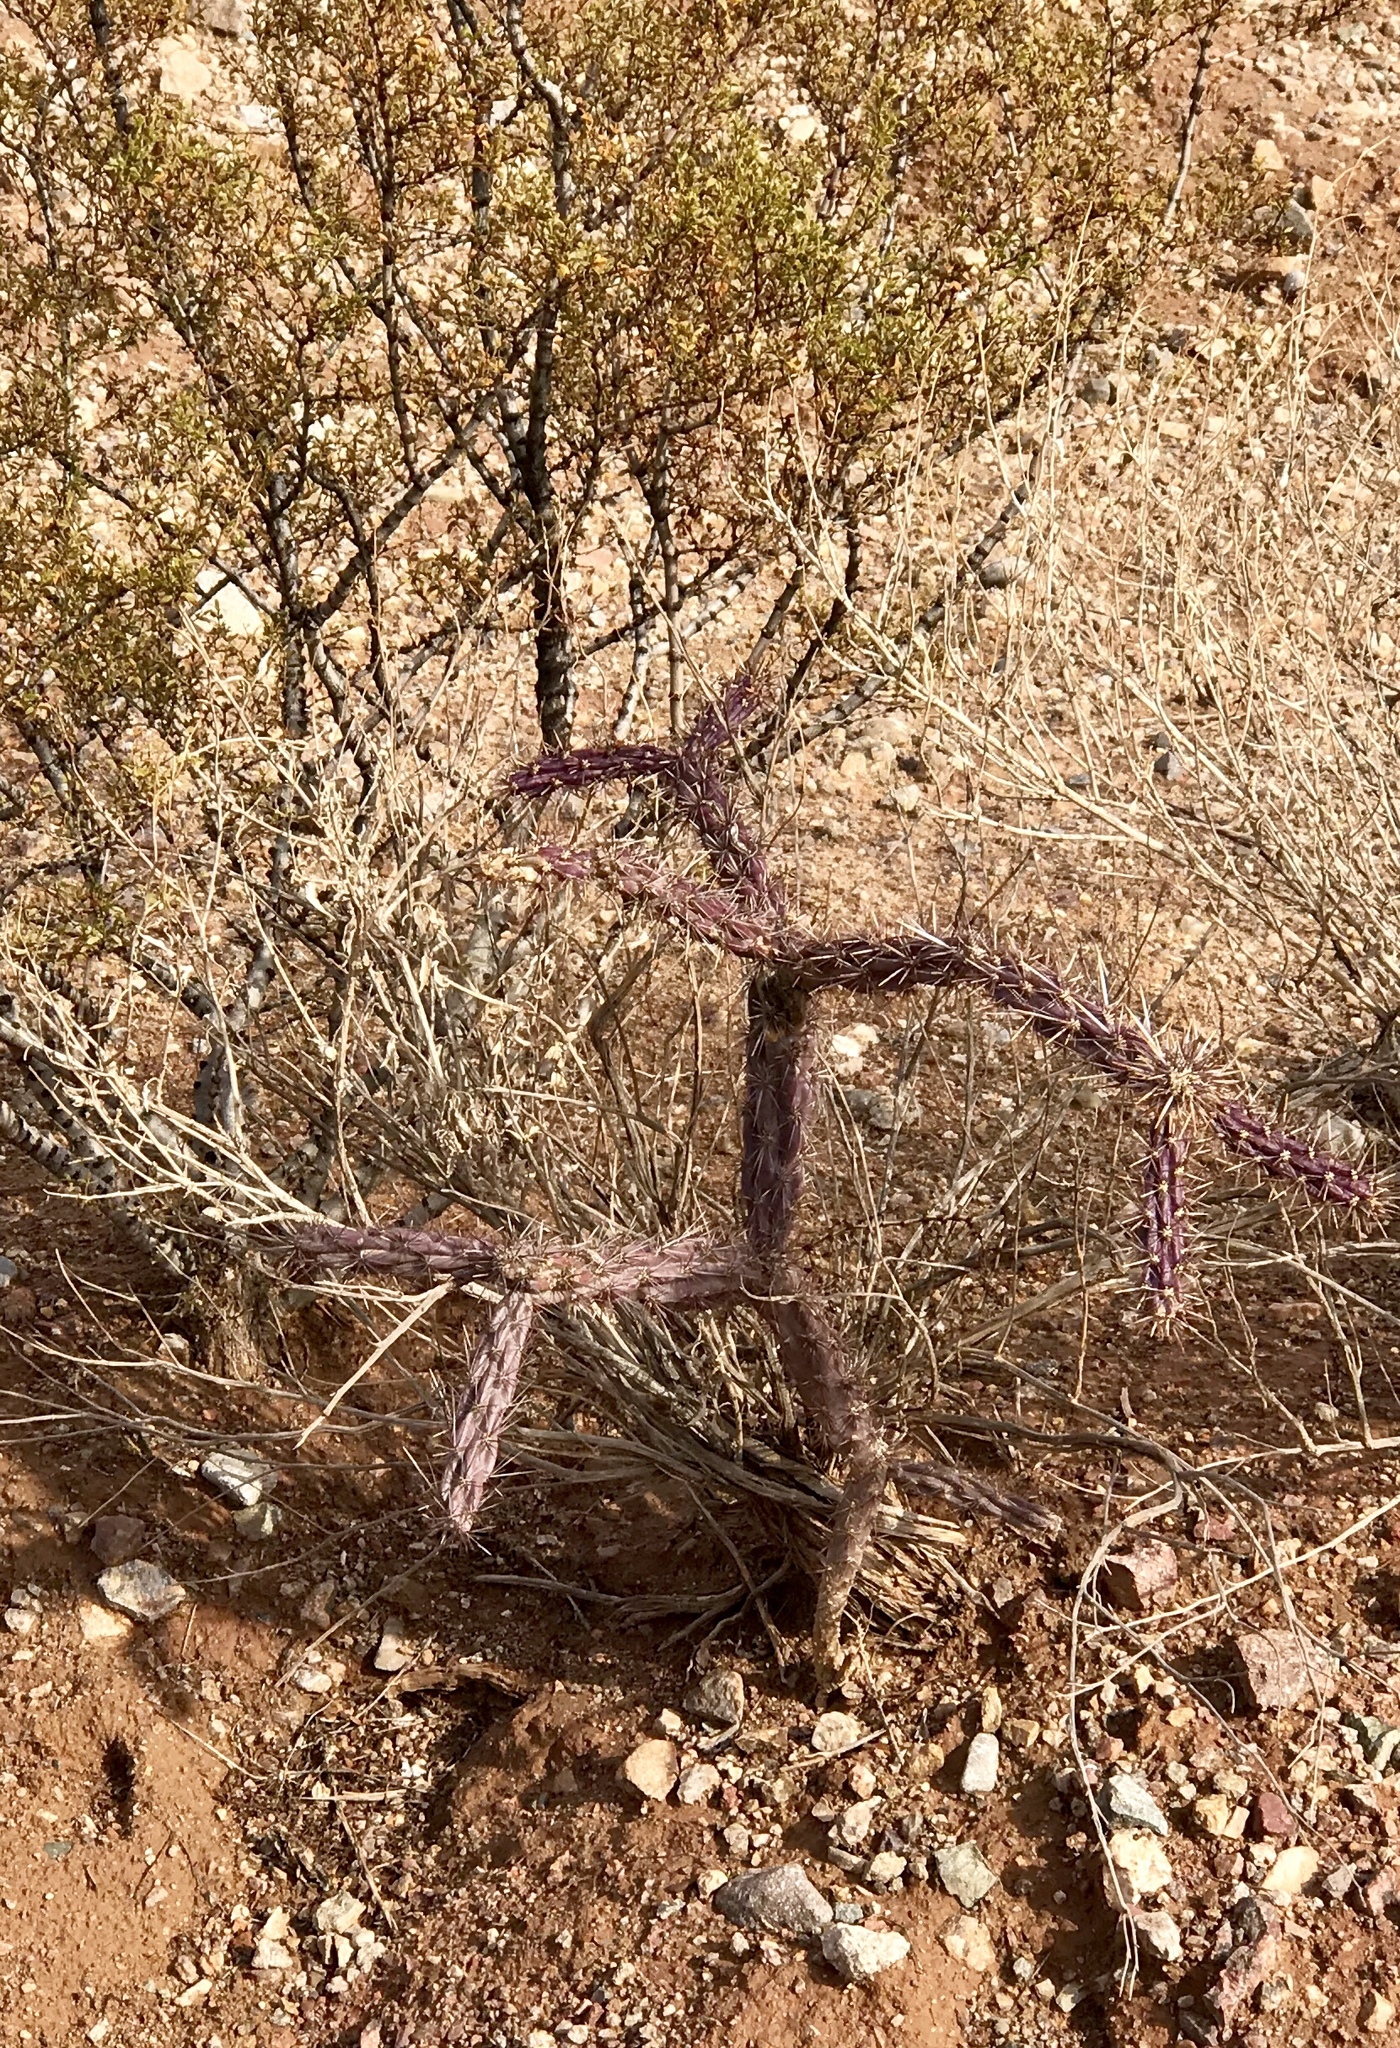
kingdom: Plantae
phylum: Tracheophyta
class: Magnoliopsida
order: Caryophyllales
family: Cactaceae
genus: Cylindropuntia
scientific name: Cylindropuntia thurberi
